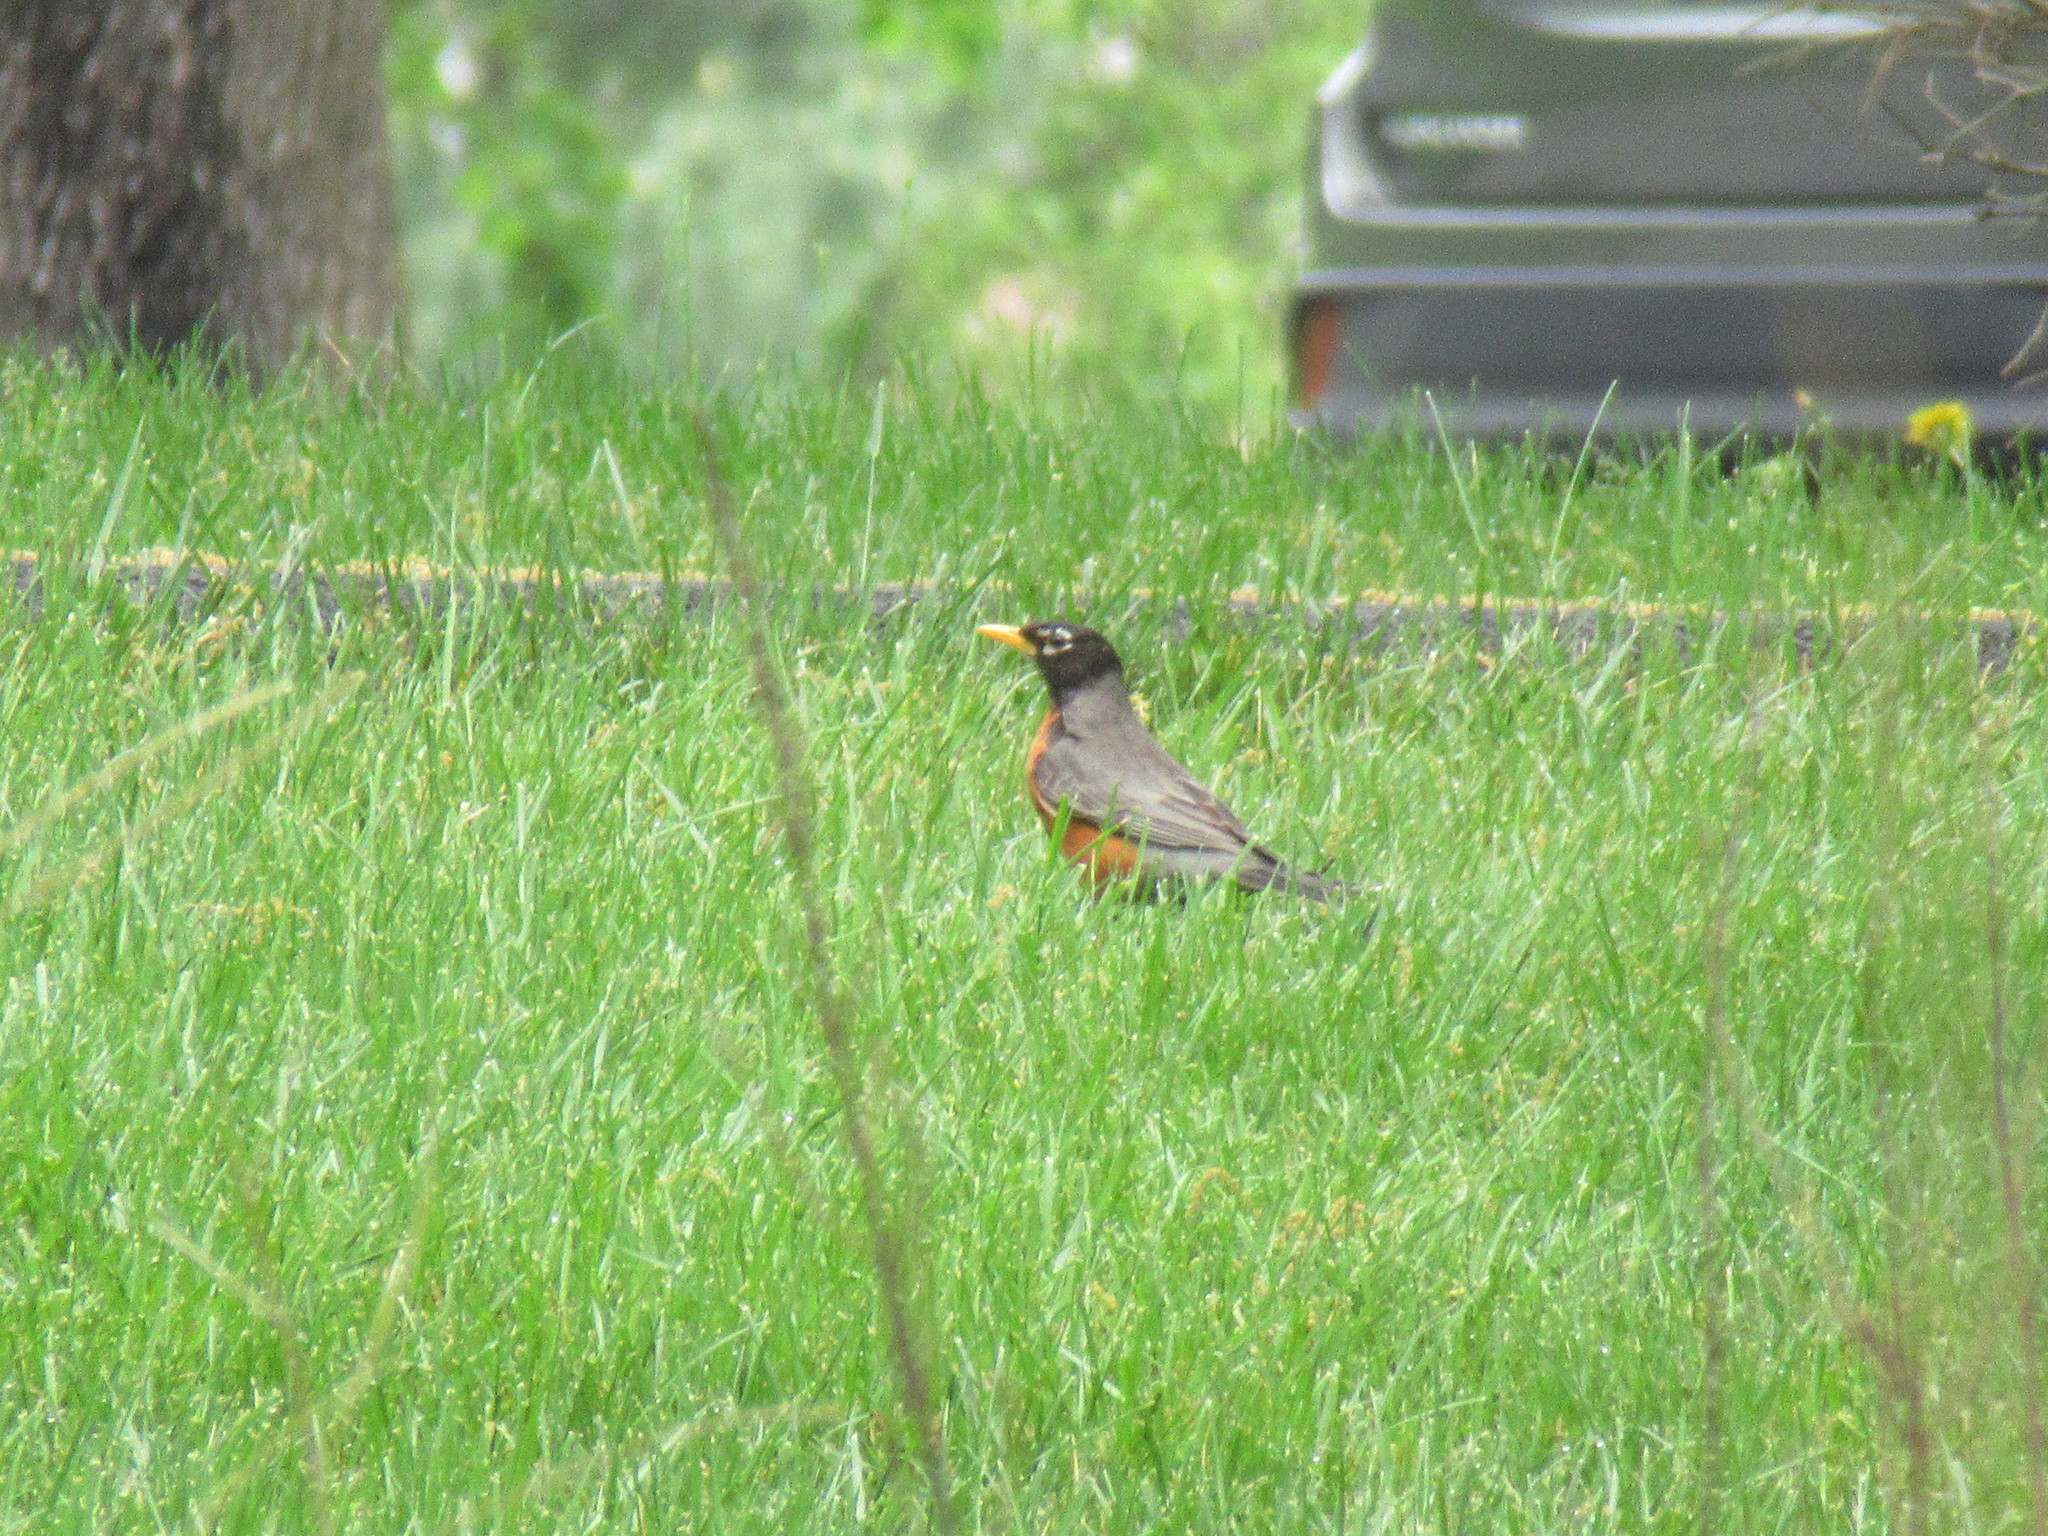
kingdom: Animalia
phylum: Chordata
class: Aves
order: Passeriformes
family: Turdidae
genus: Turdus
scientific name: Turdus migratorius
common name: American robin
